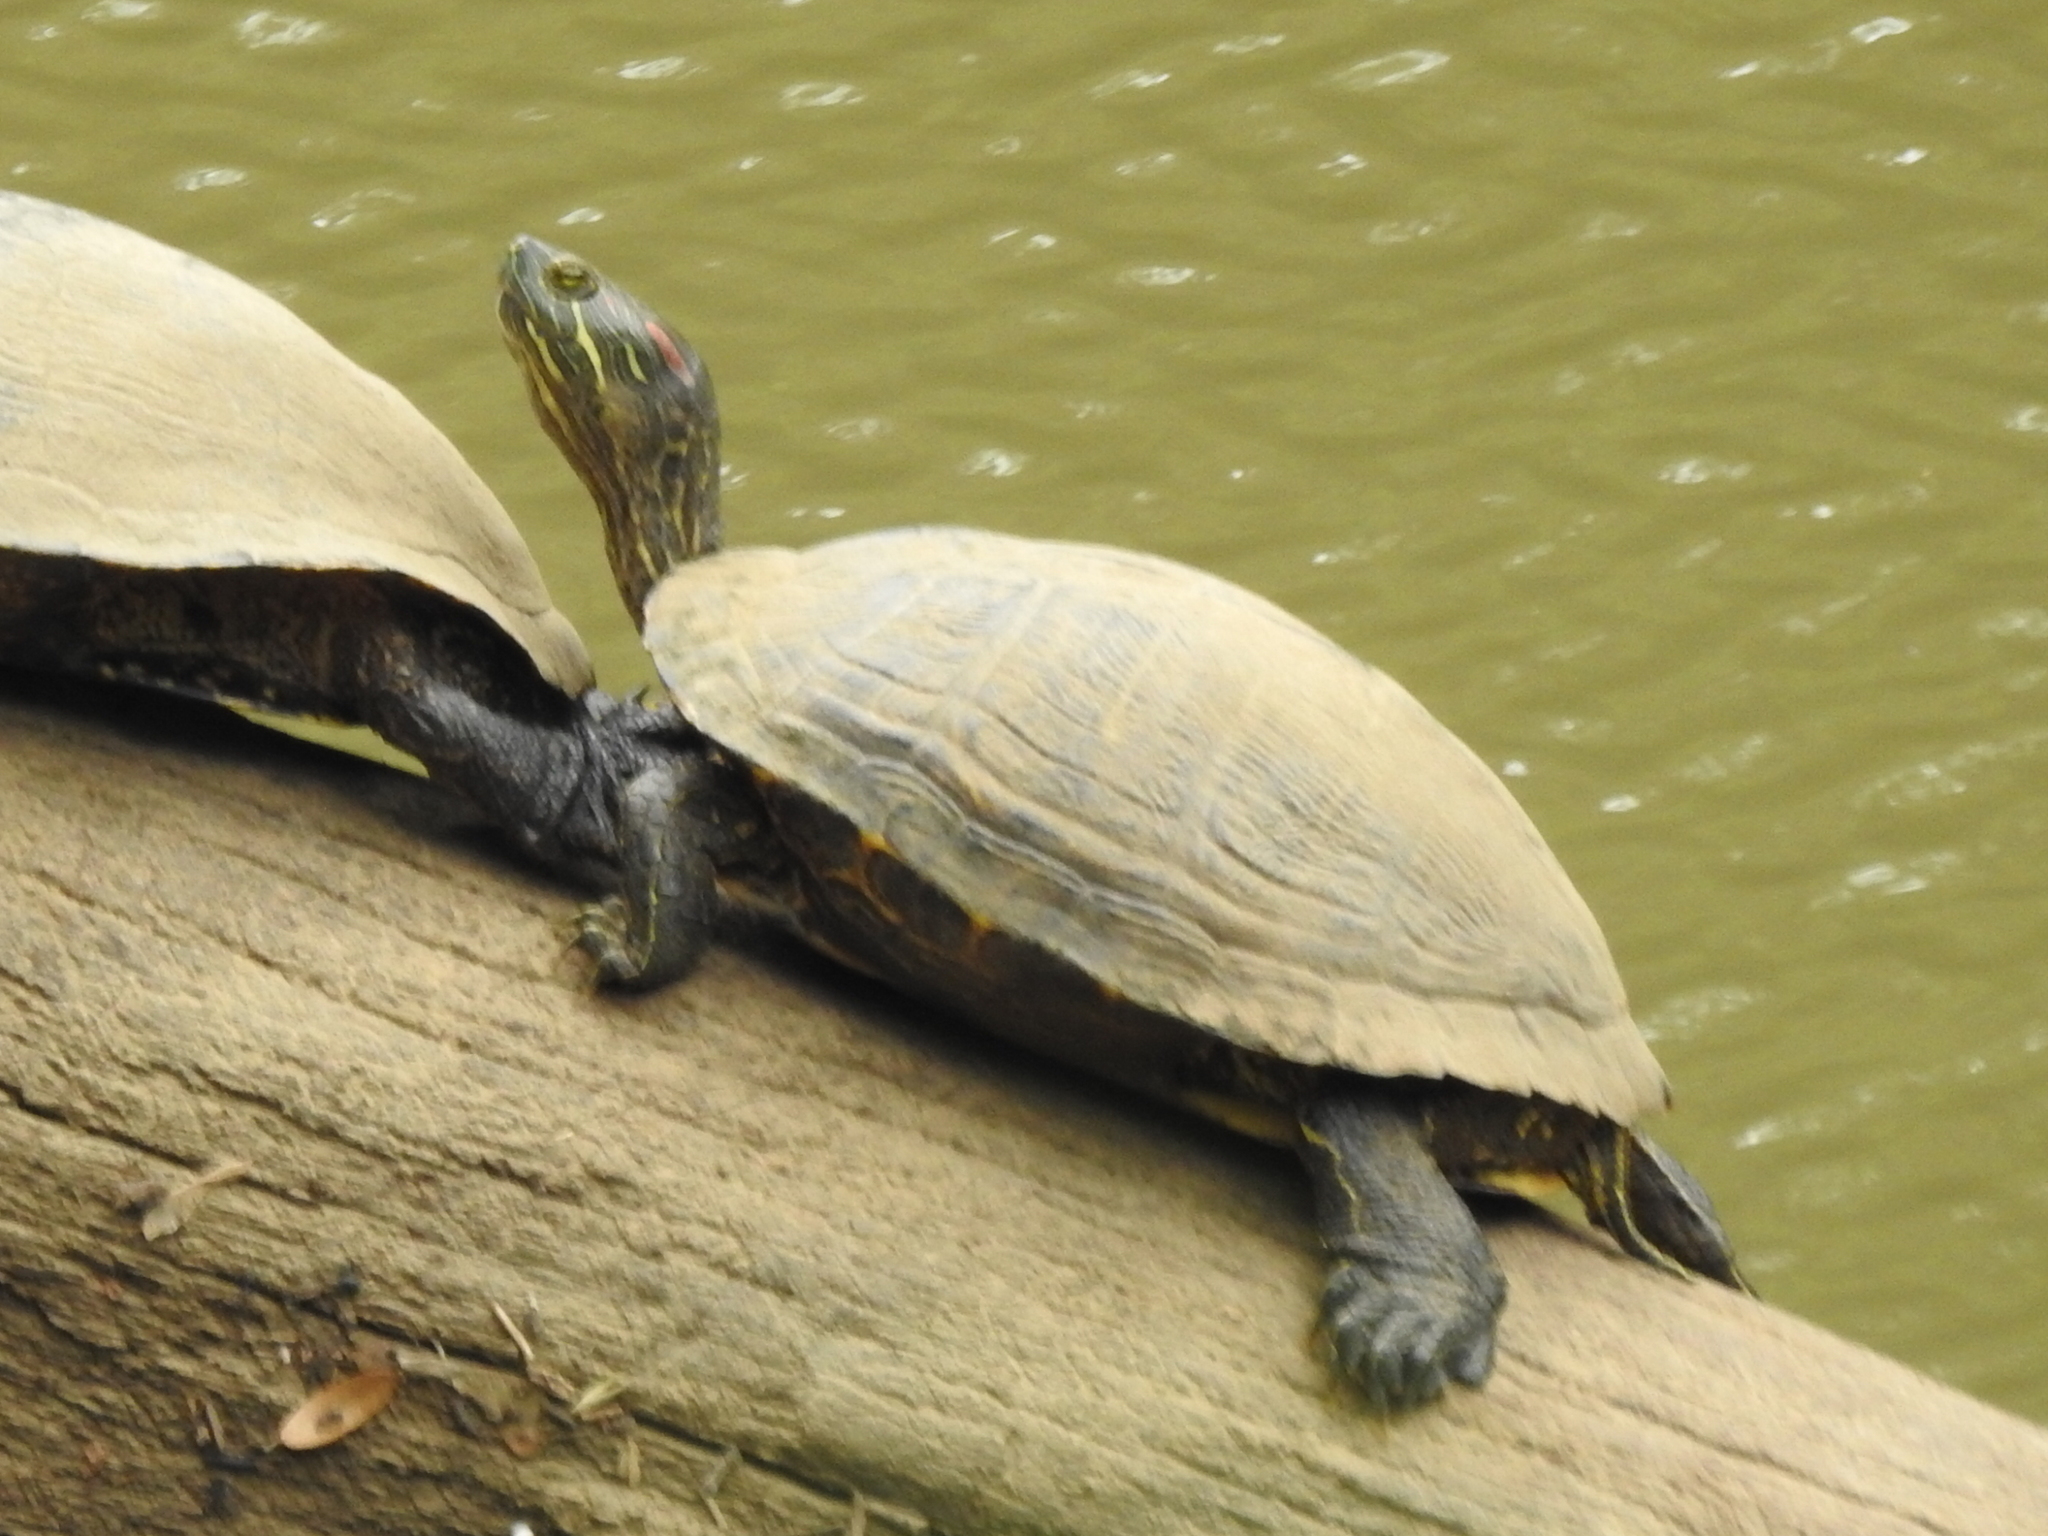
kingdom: Animalia
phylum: Chordata
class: Testudines
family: Emydidae
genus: Trachemys
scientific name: Trachemys scripta
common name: Slider
